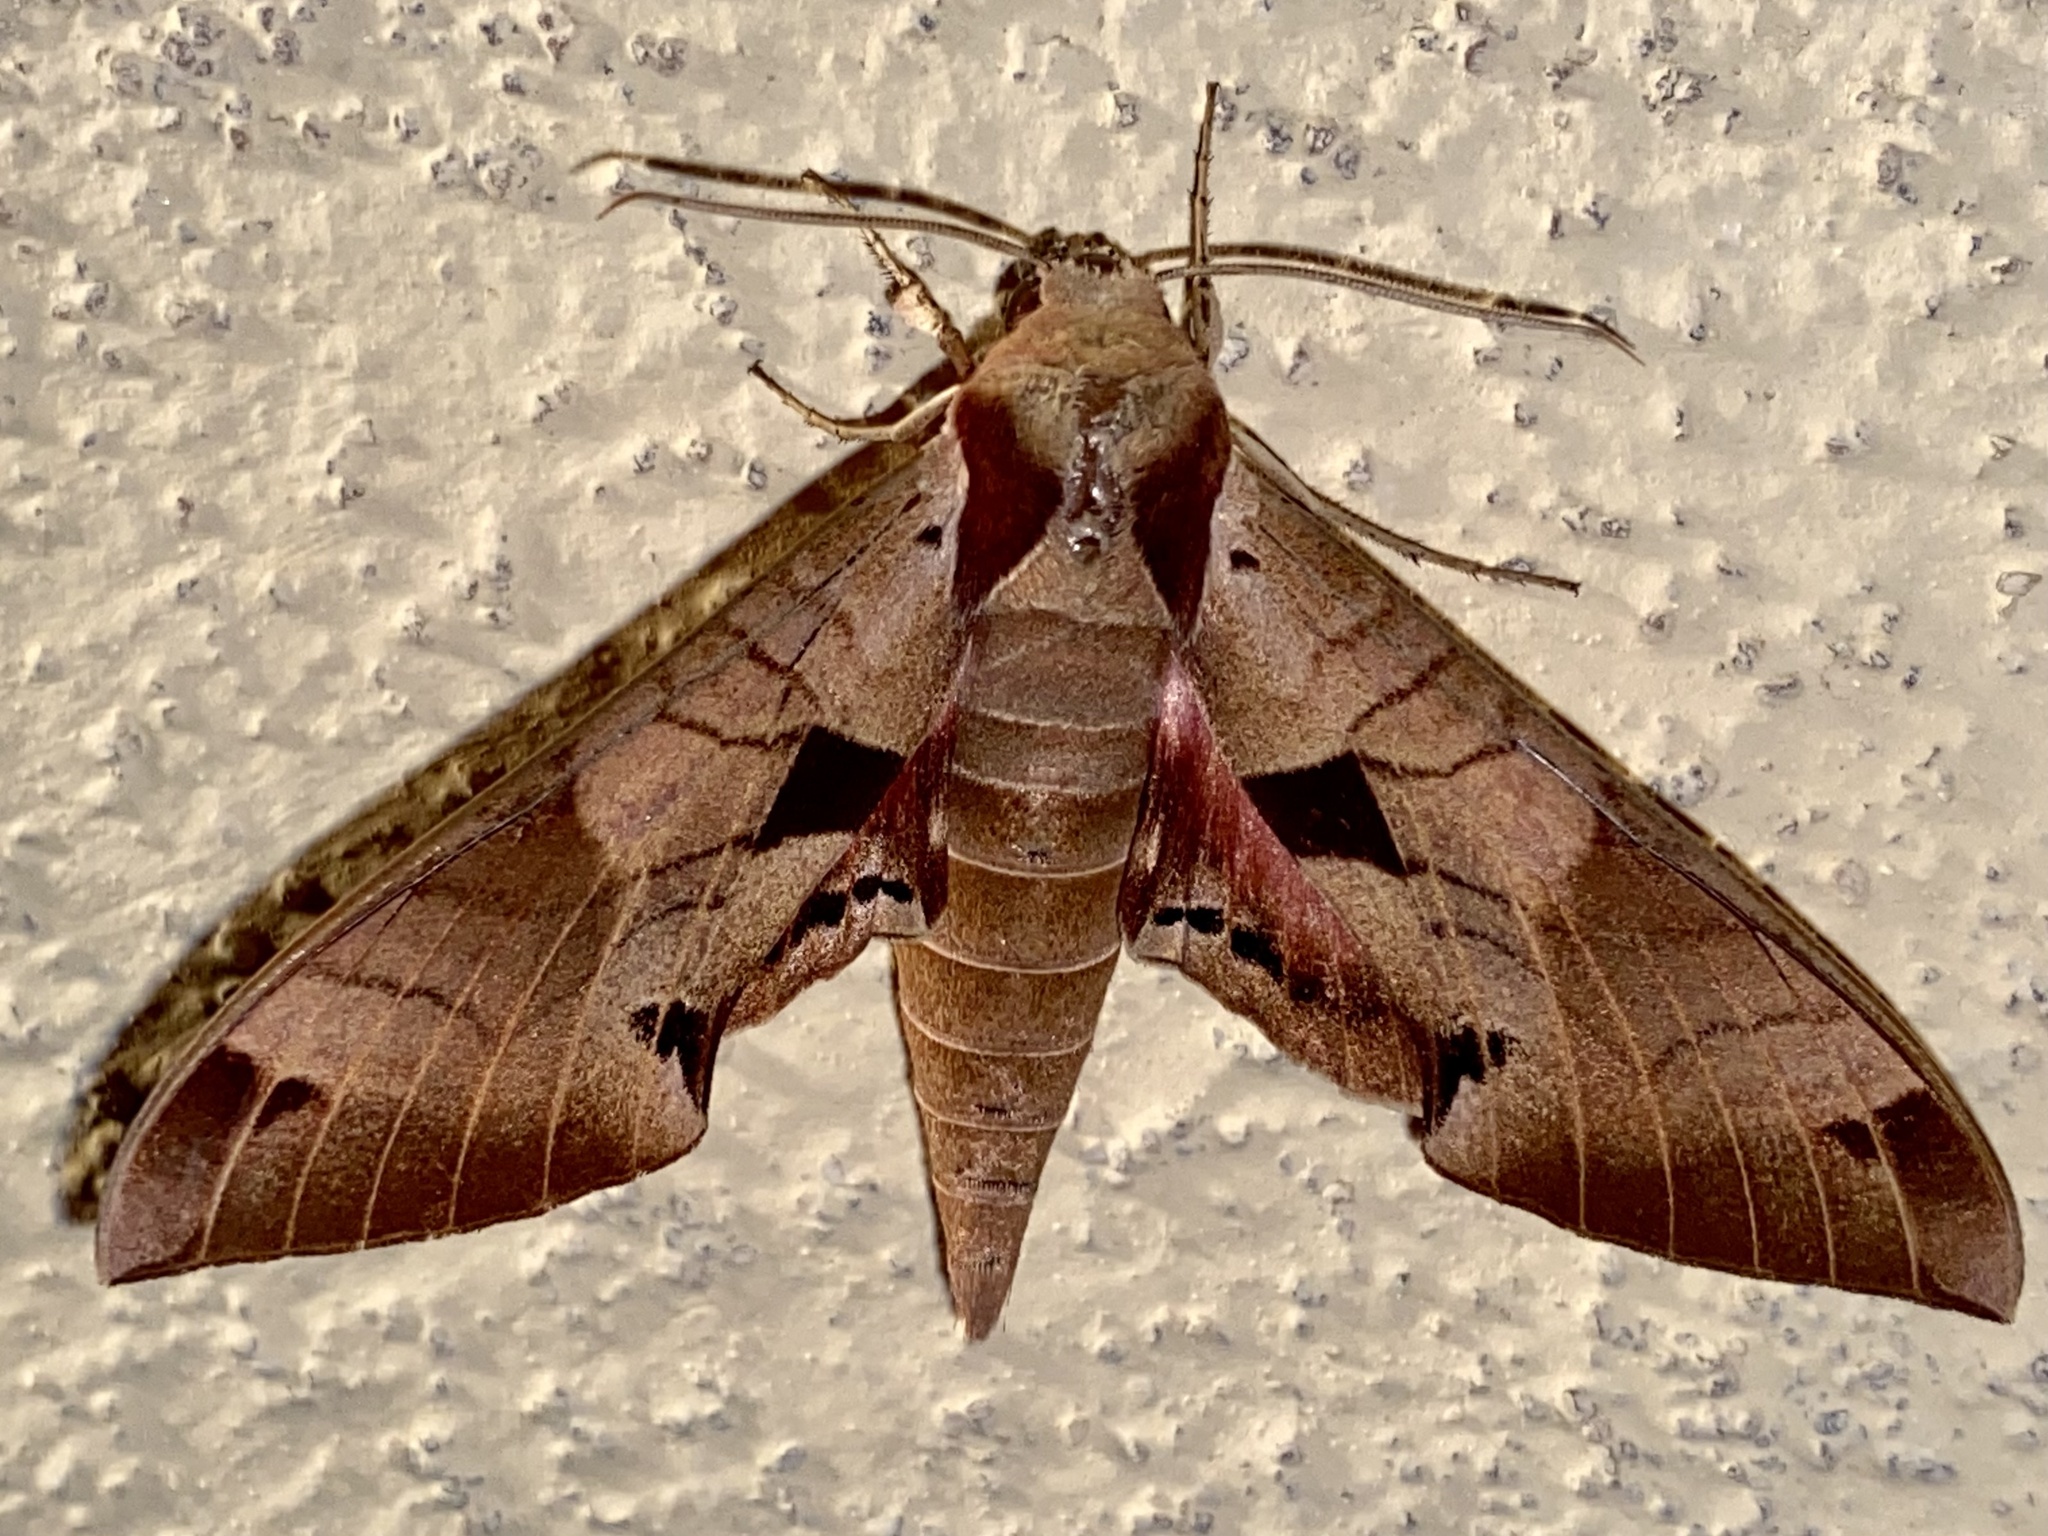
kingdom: Animalia
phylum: Arthropoda
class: Insecta
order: Lepidoptera
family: Sphingidae
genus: Eumorpha
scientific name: Eumorpha achemon
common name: Achemon sphinx
